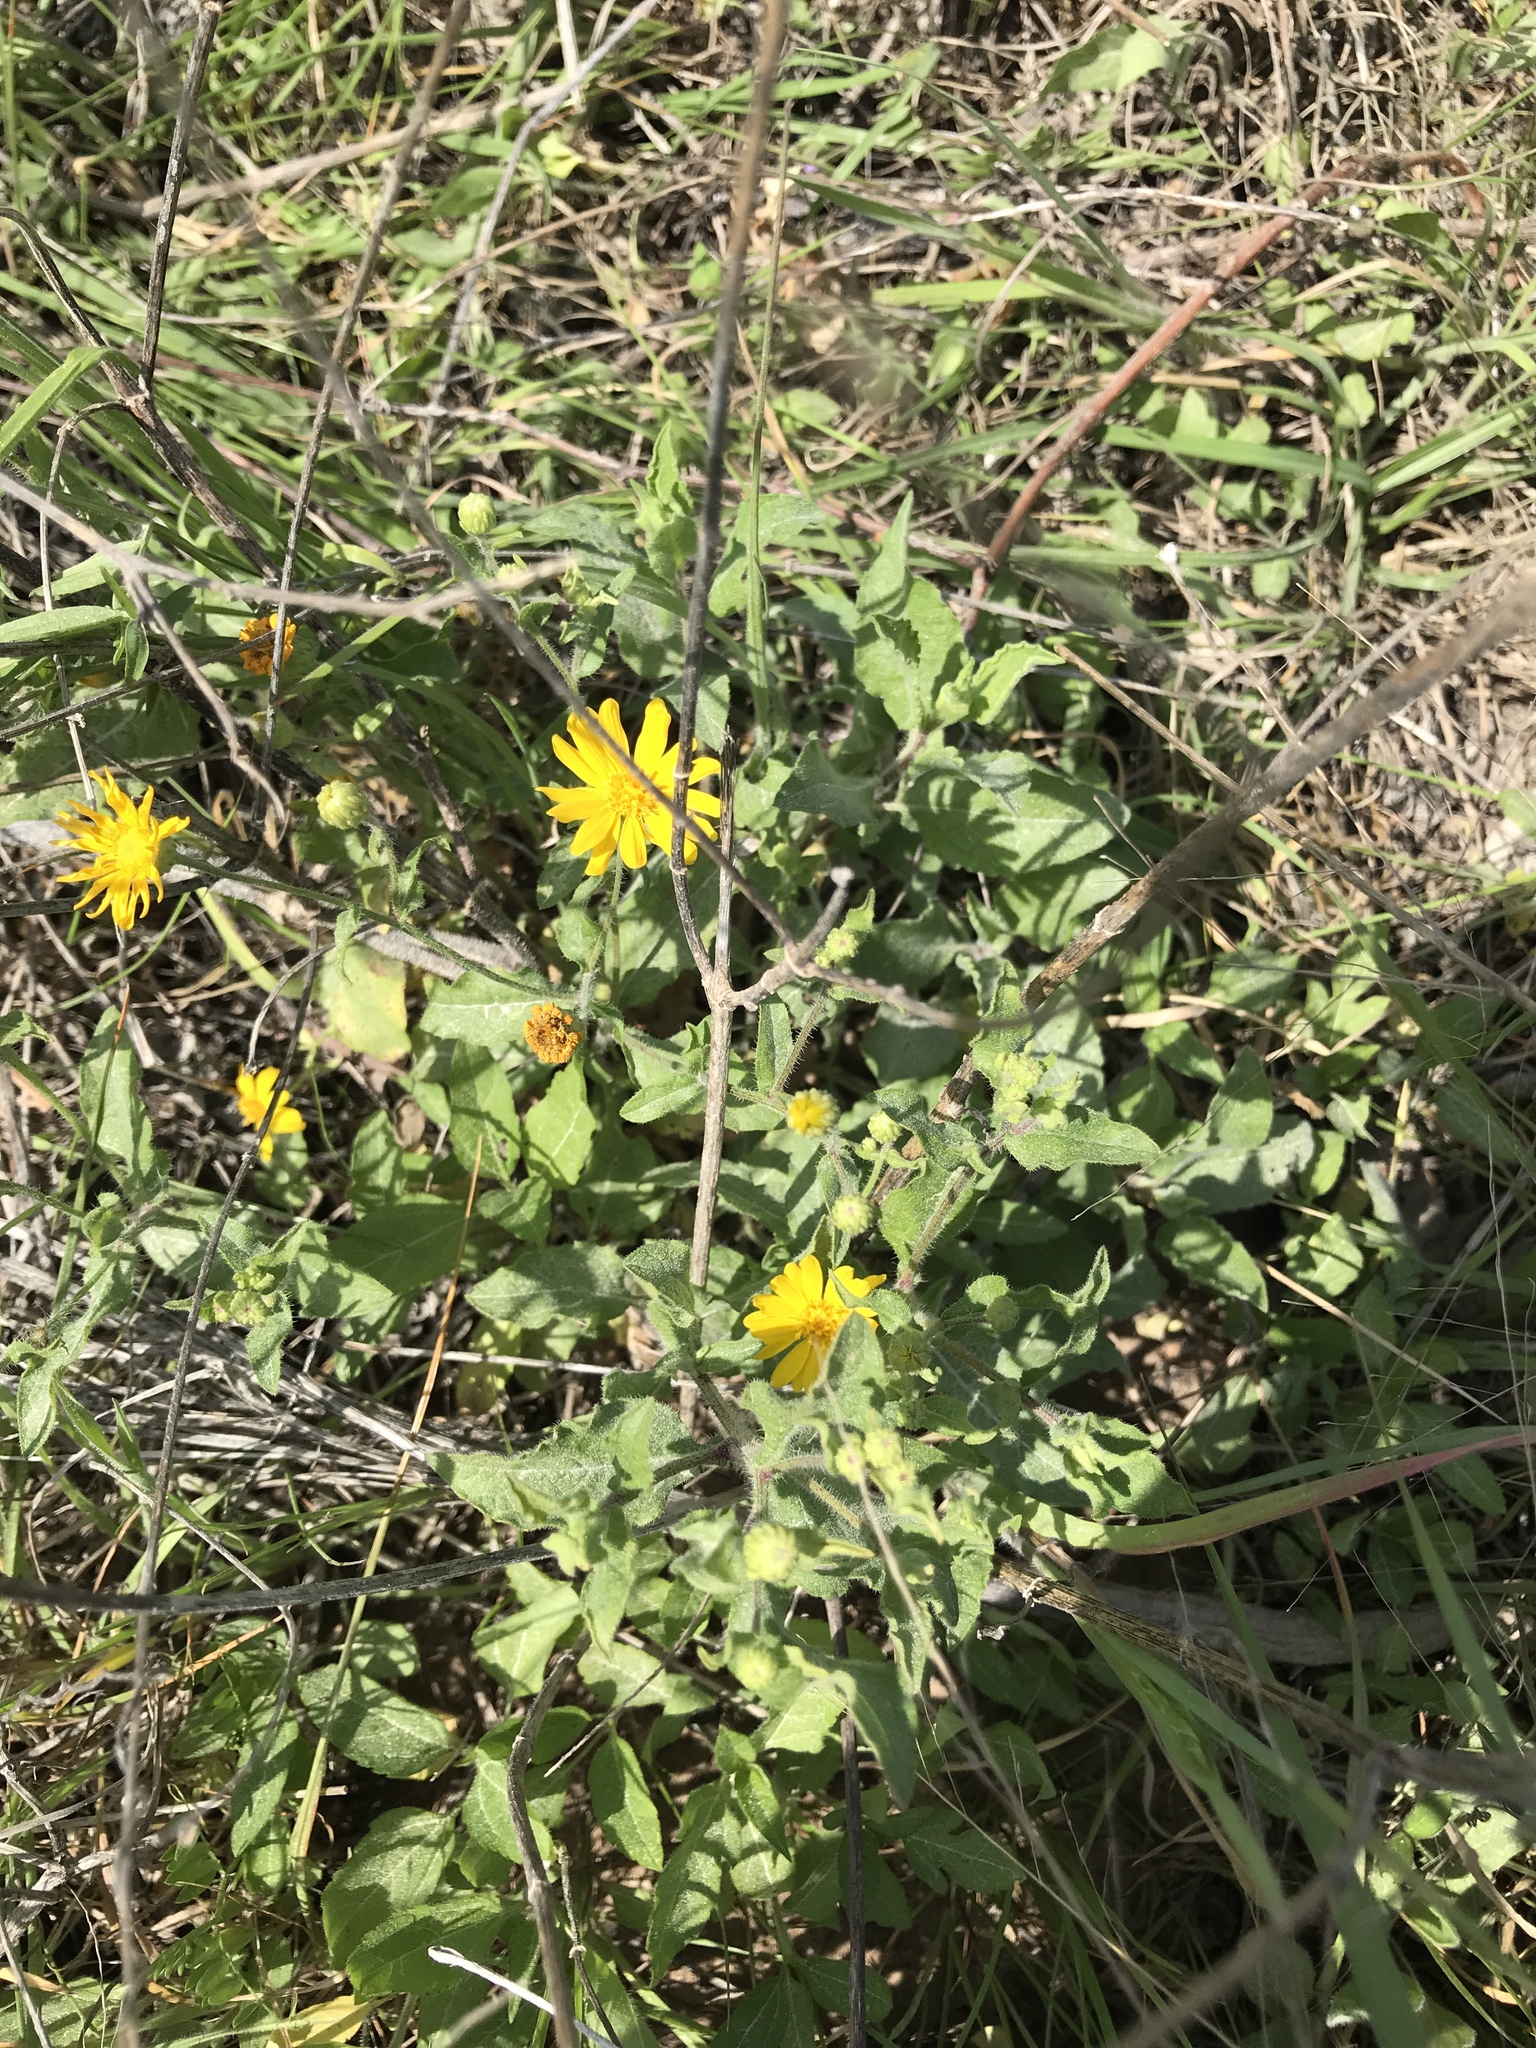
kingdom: Plantae
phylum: Tracheophyta
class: Magnoliopsida
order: Asterales
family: Asteraceae
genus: Heterotheca
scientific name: Heterotheca subaxillaris
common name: Camphorweed
